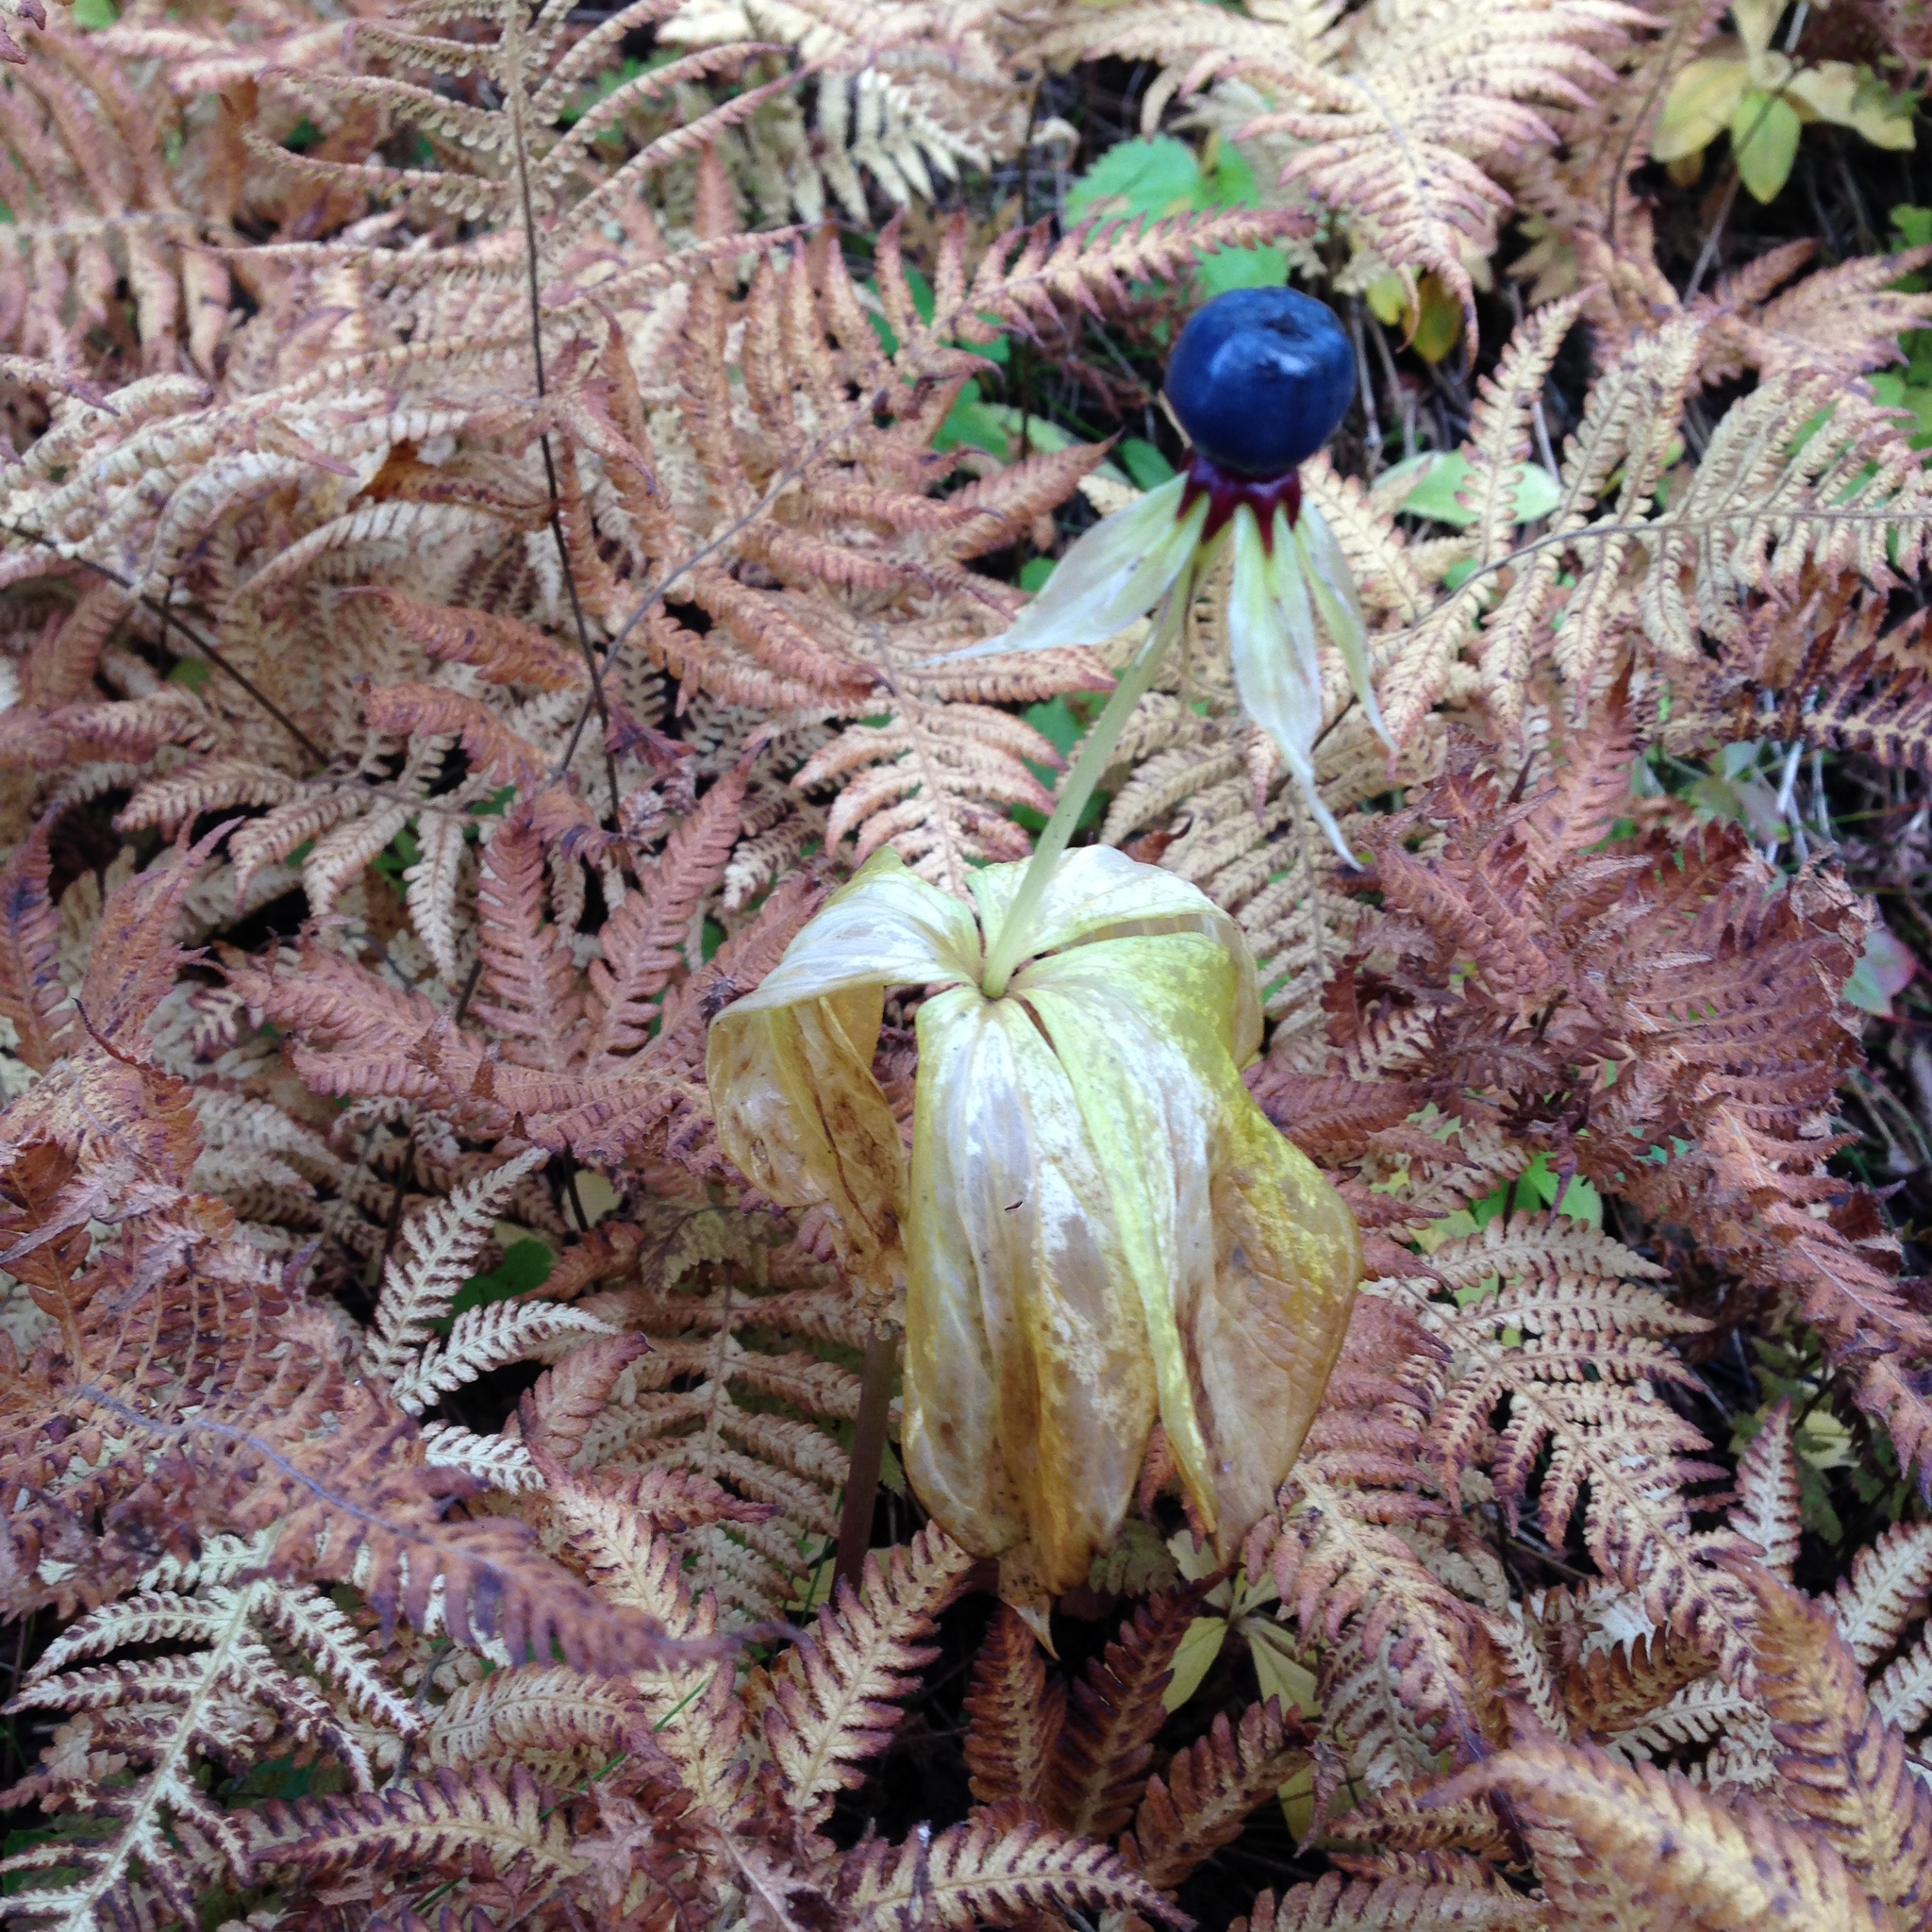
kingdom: Plantae
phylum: Tracheophyta
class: Liliopsida
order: Liliales
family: Melanthiaceae
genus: Paris
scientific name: Paris quadrifolia
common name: Herb-paris
